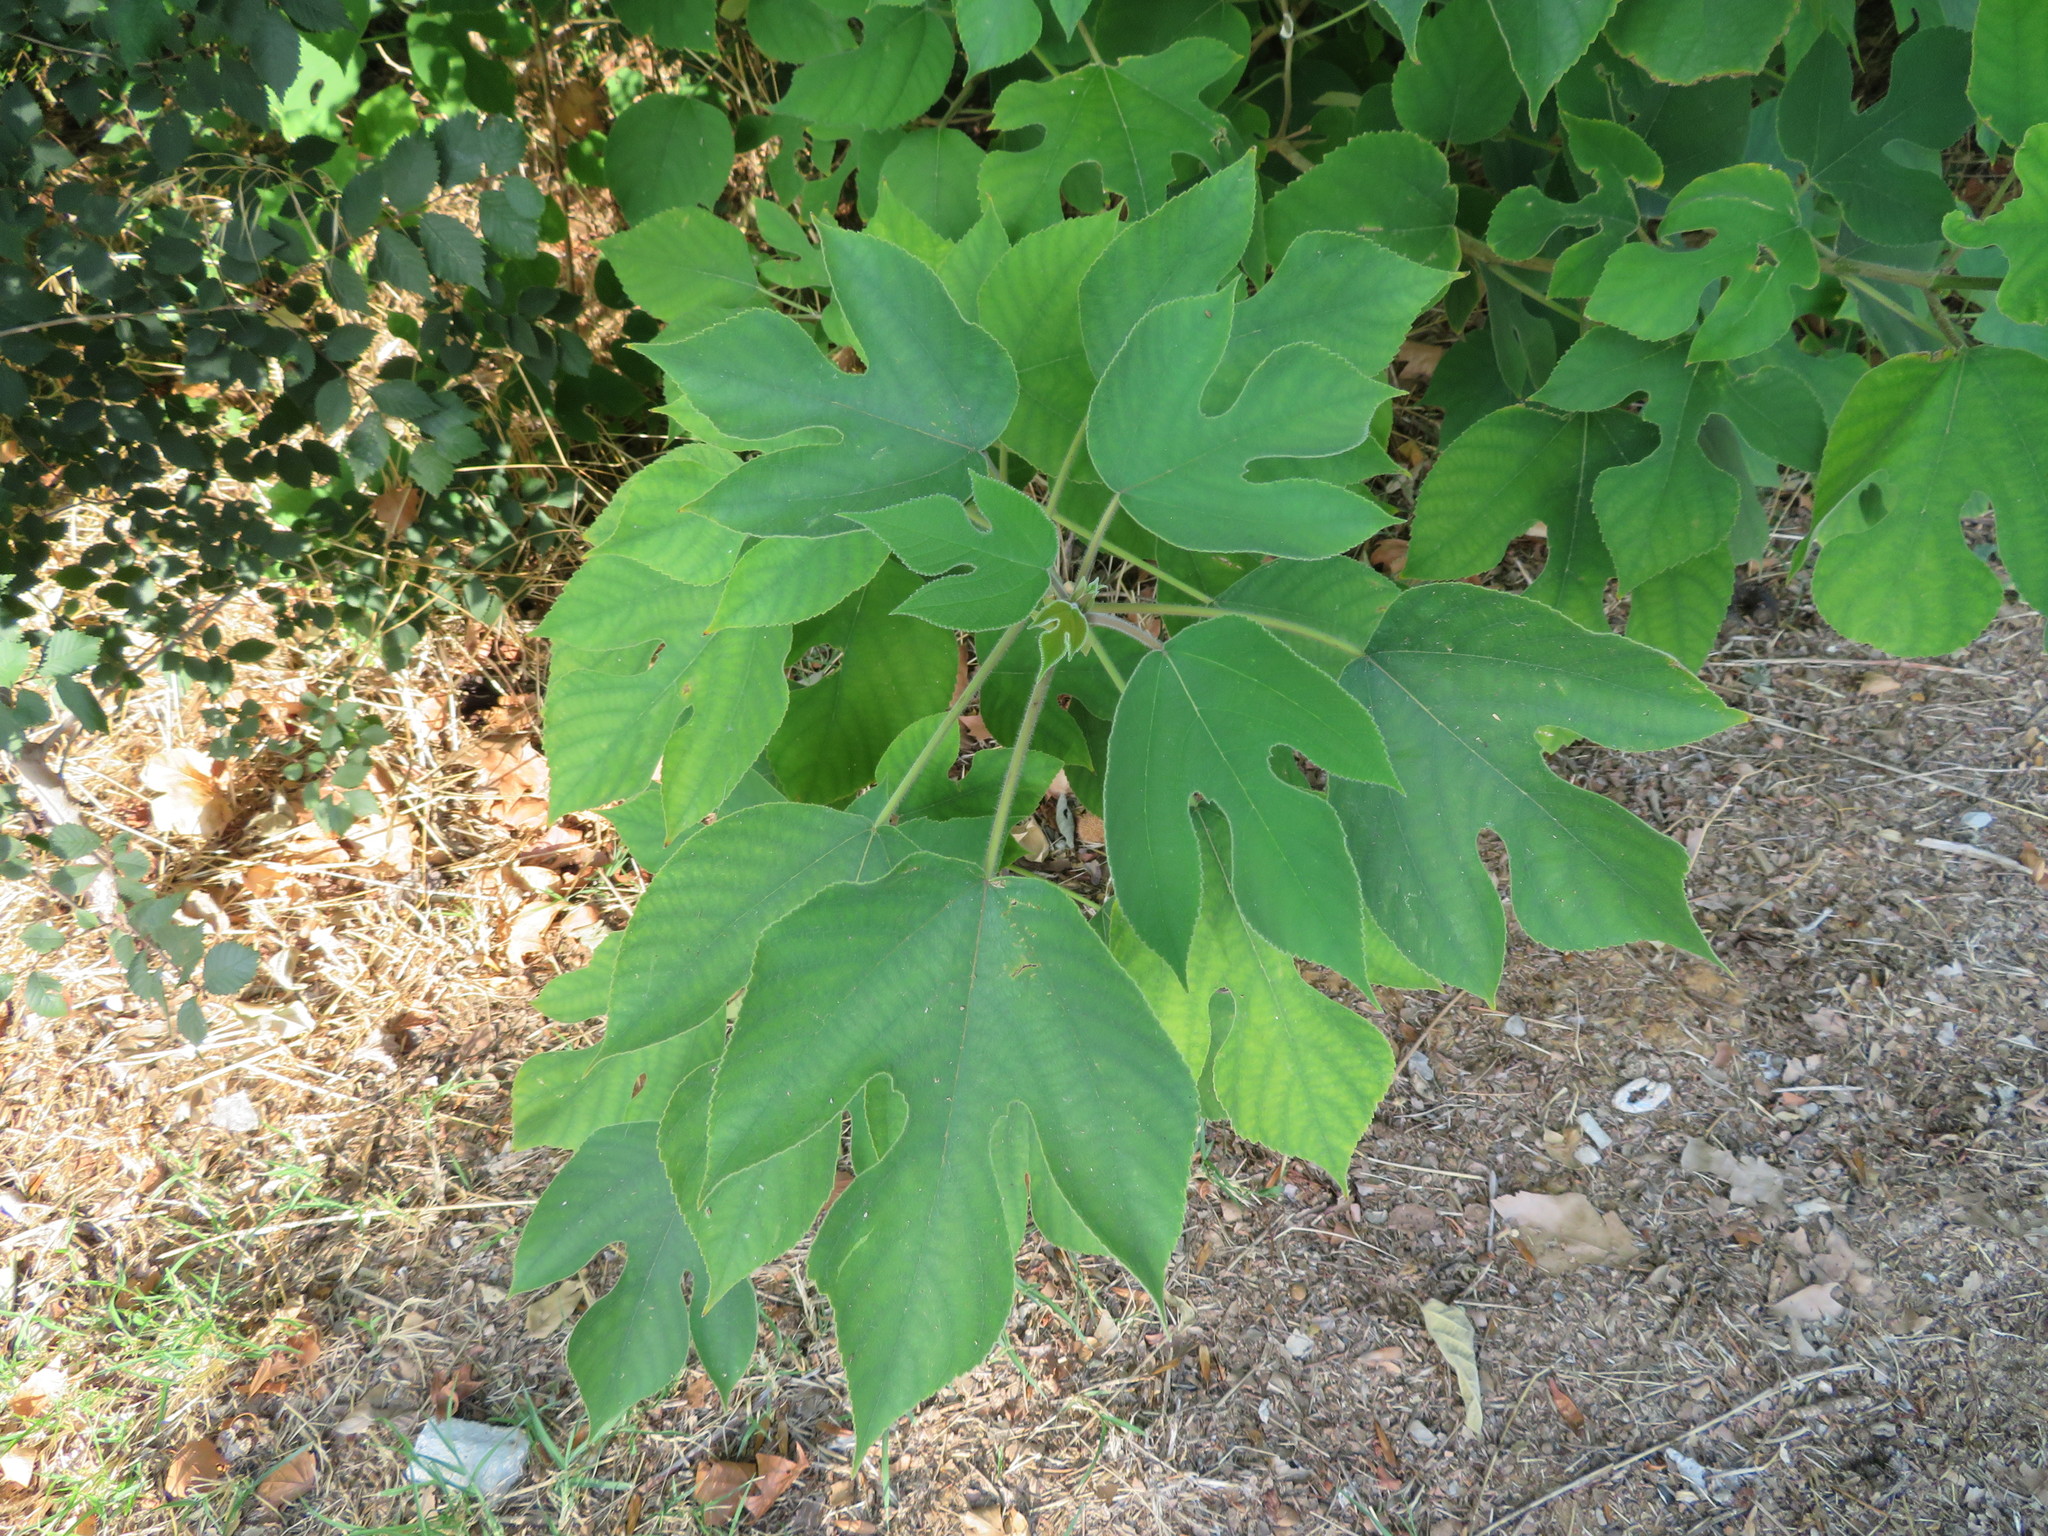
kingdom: Plantae
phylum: Tracheophyta
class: Magnoliopsida
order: Rosales
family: Moraceae
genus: Broussonetia
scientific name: Broussonetia papyrifera
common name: Paper mulberry
